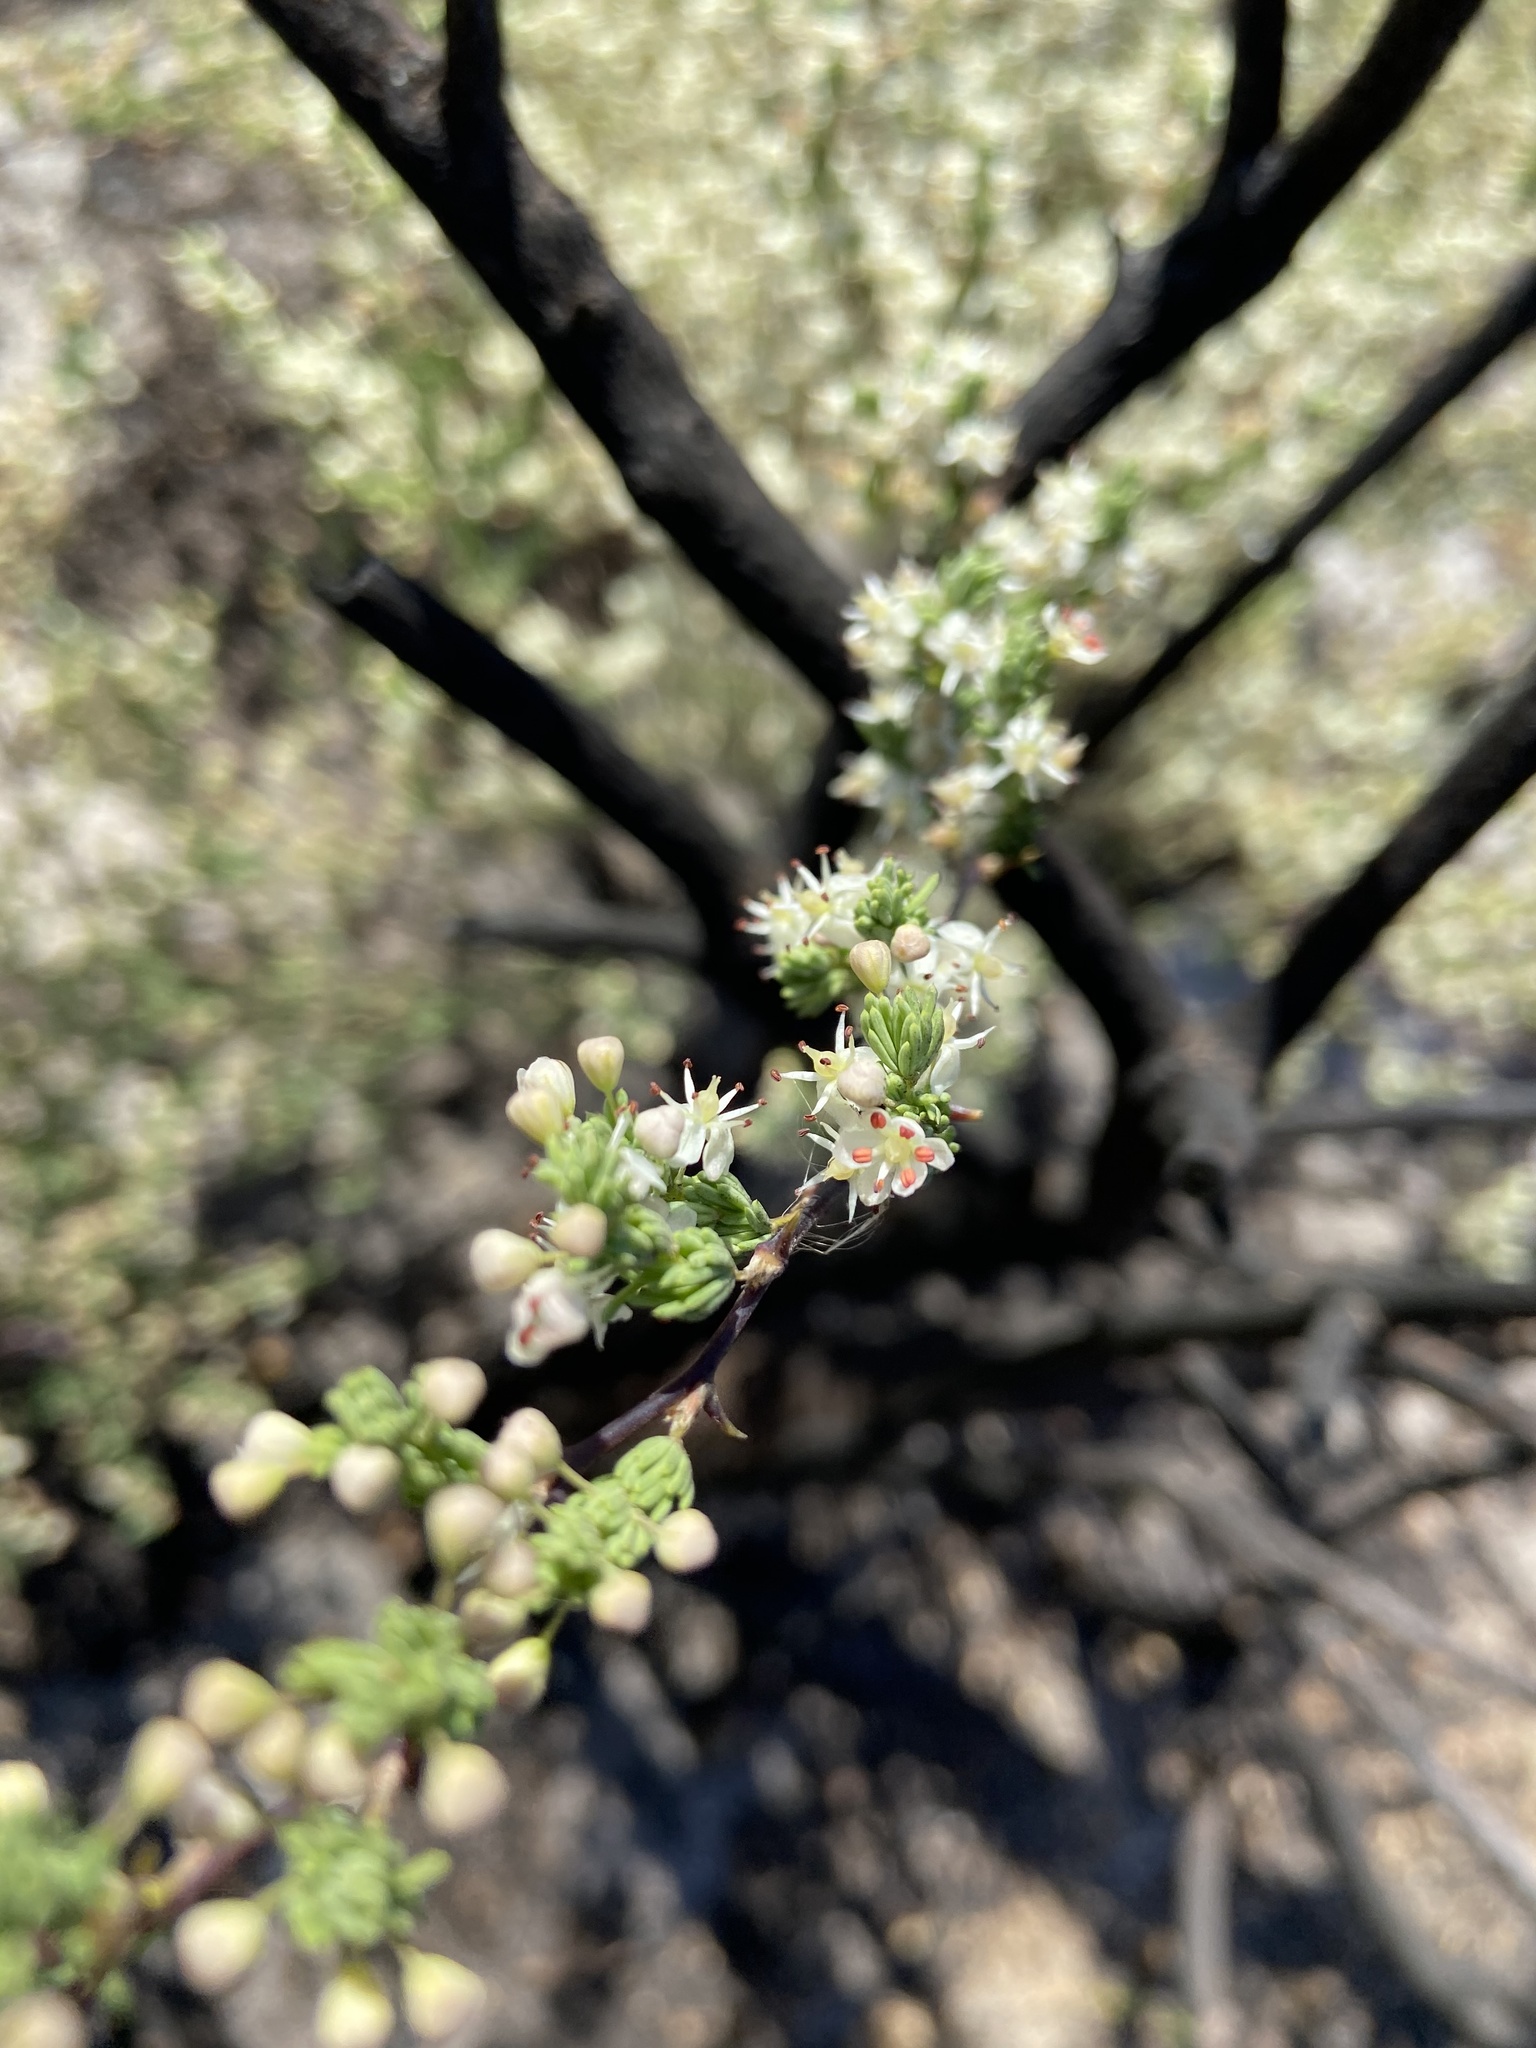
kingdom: Plantae
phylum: Tracheophyta
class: Liliopsida
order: Asparagales
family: Asparagaceae
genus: Asparagus
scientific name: Asparagus rubicundus
